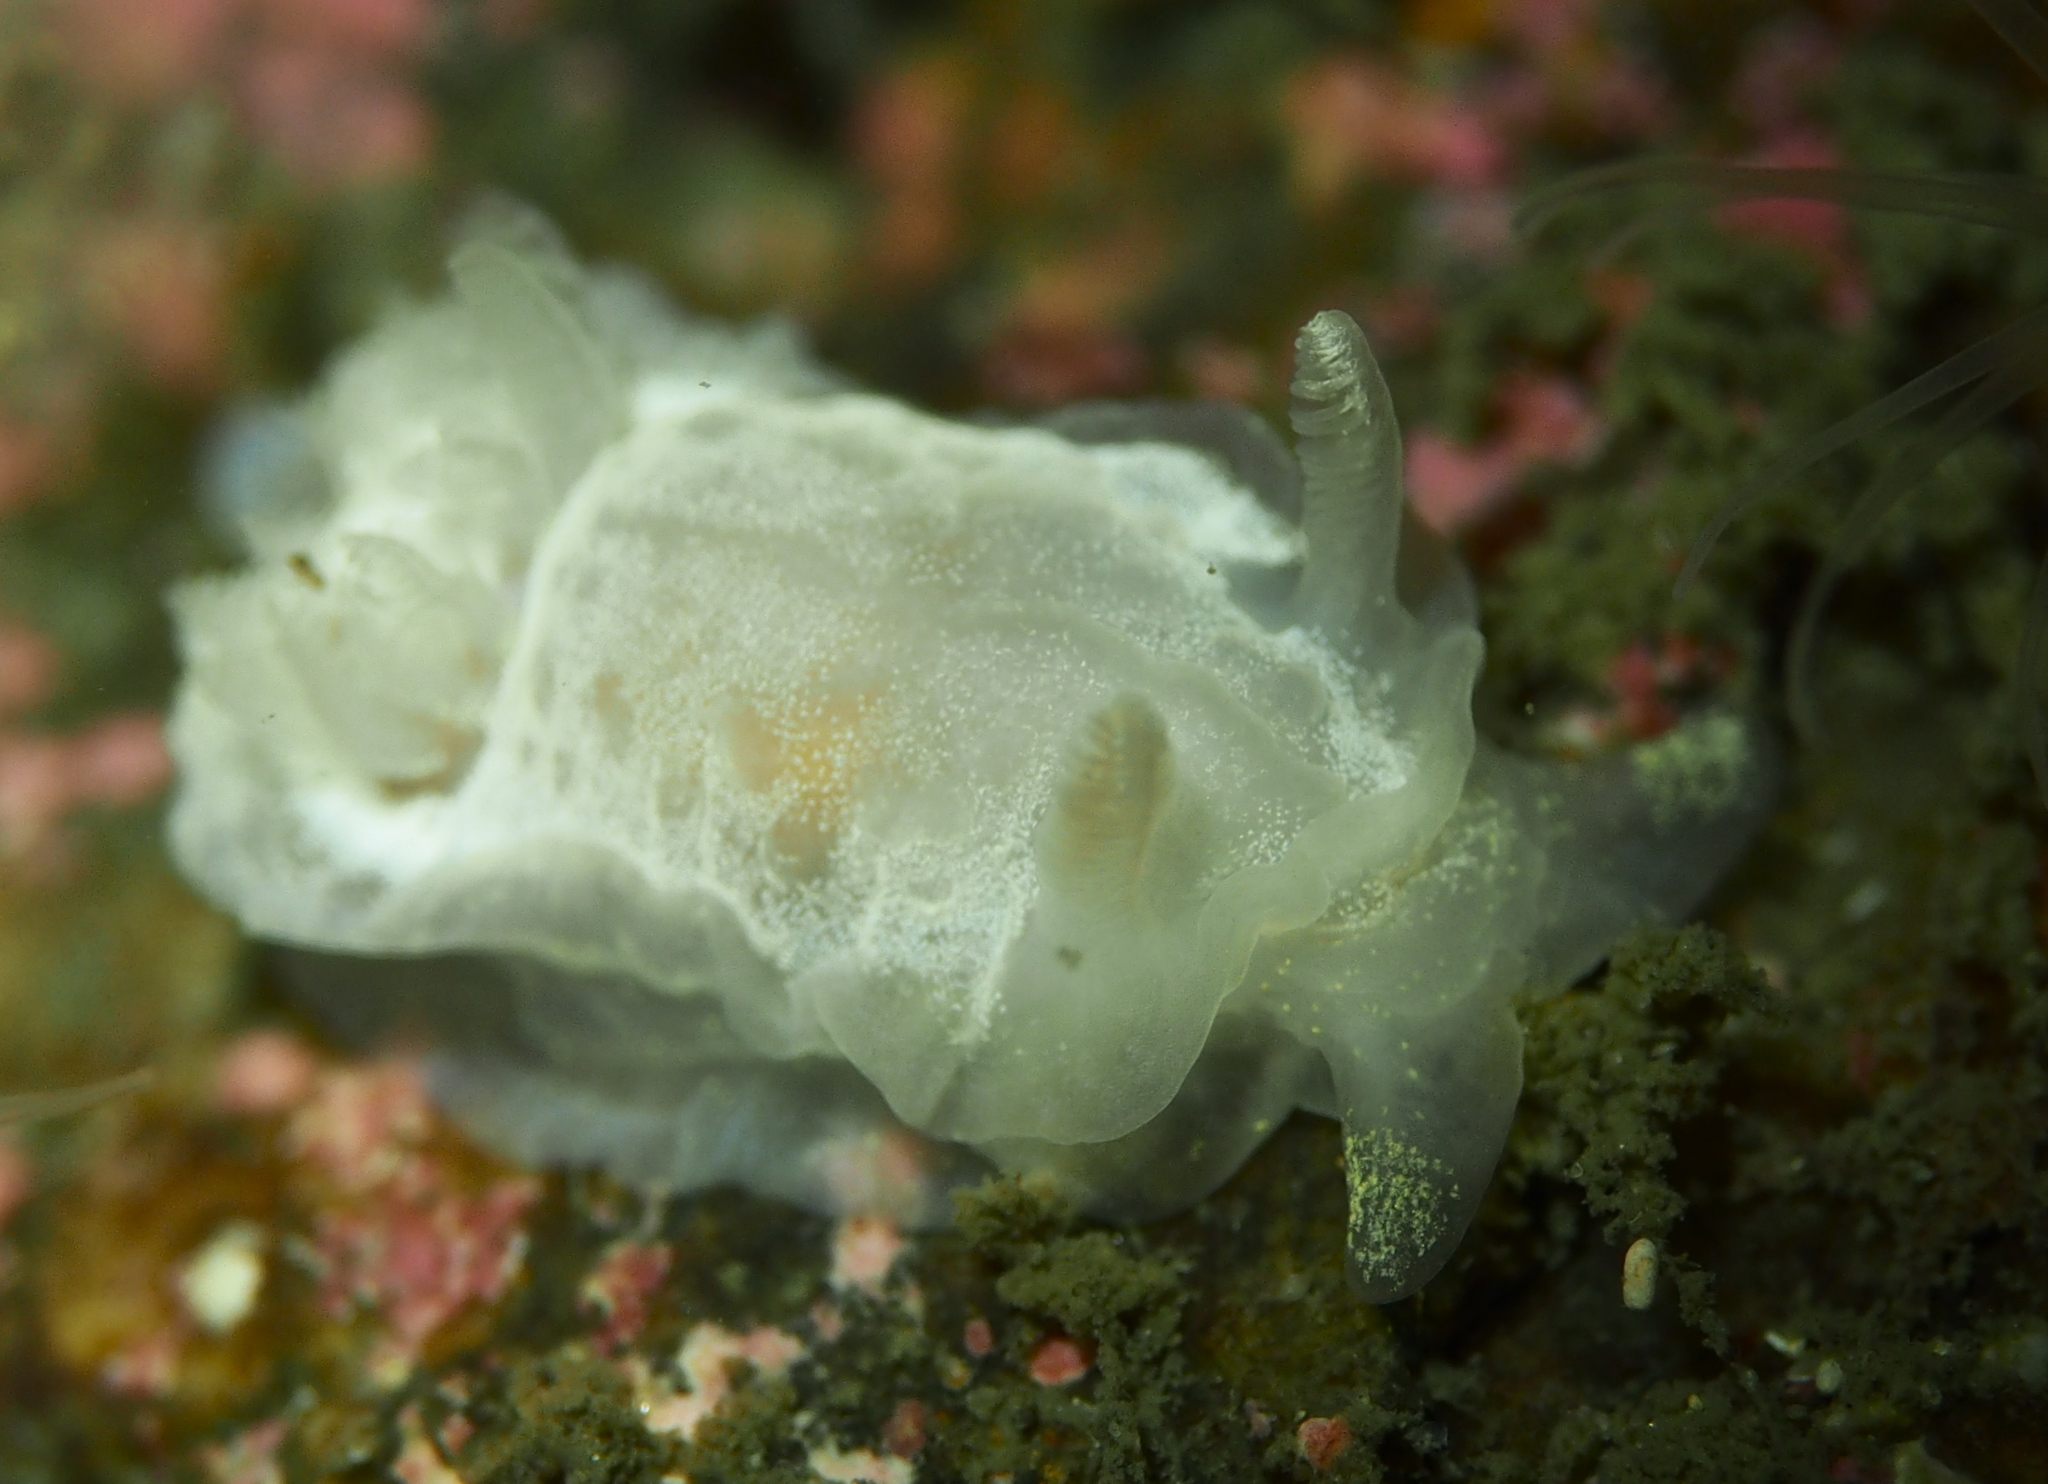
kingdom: Animalia
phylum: Mollusca
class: Gastropoda
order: Nudibranchia
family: Goniodorididae
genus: Okenia
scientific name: Okenia
